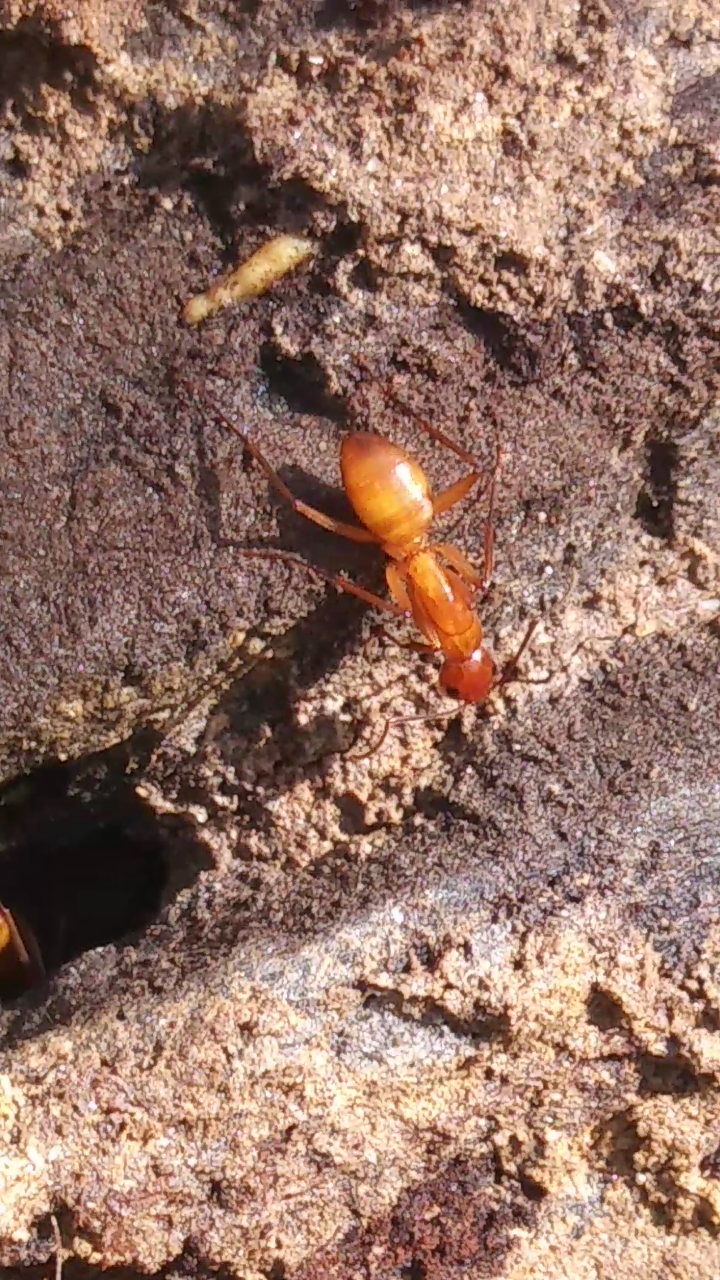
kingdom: Animalia
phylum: Arthropoda
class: Insecta
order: Hymenoptera
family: Formicidae
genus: Camponotus
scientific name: Camponotus castaneus
